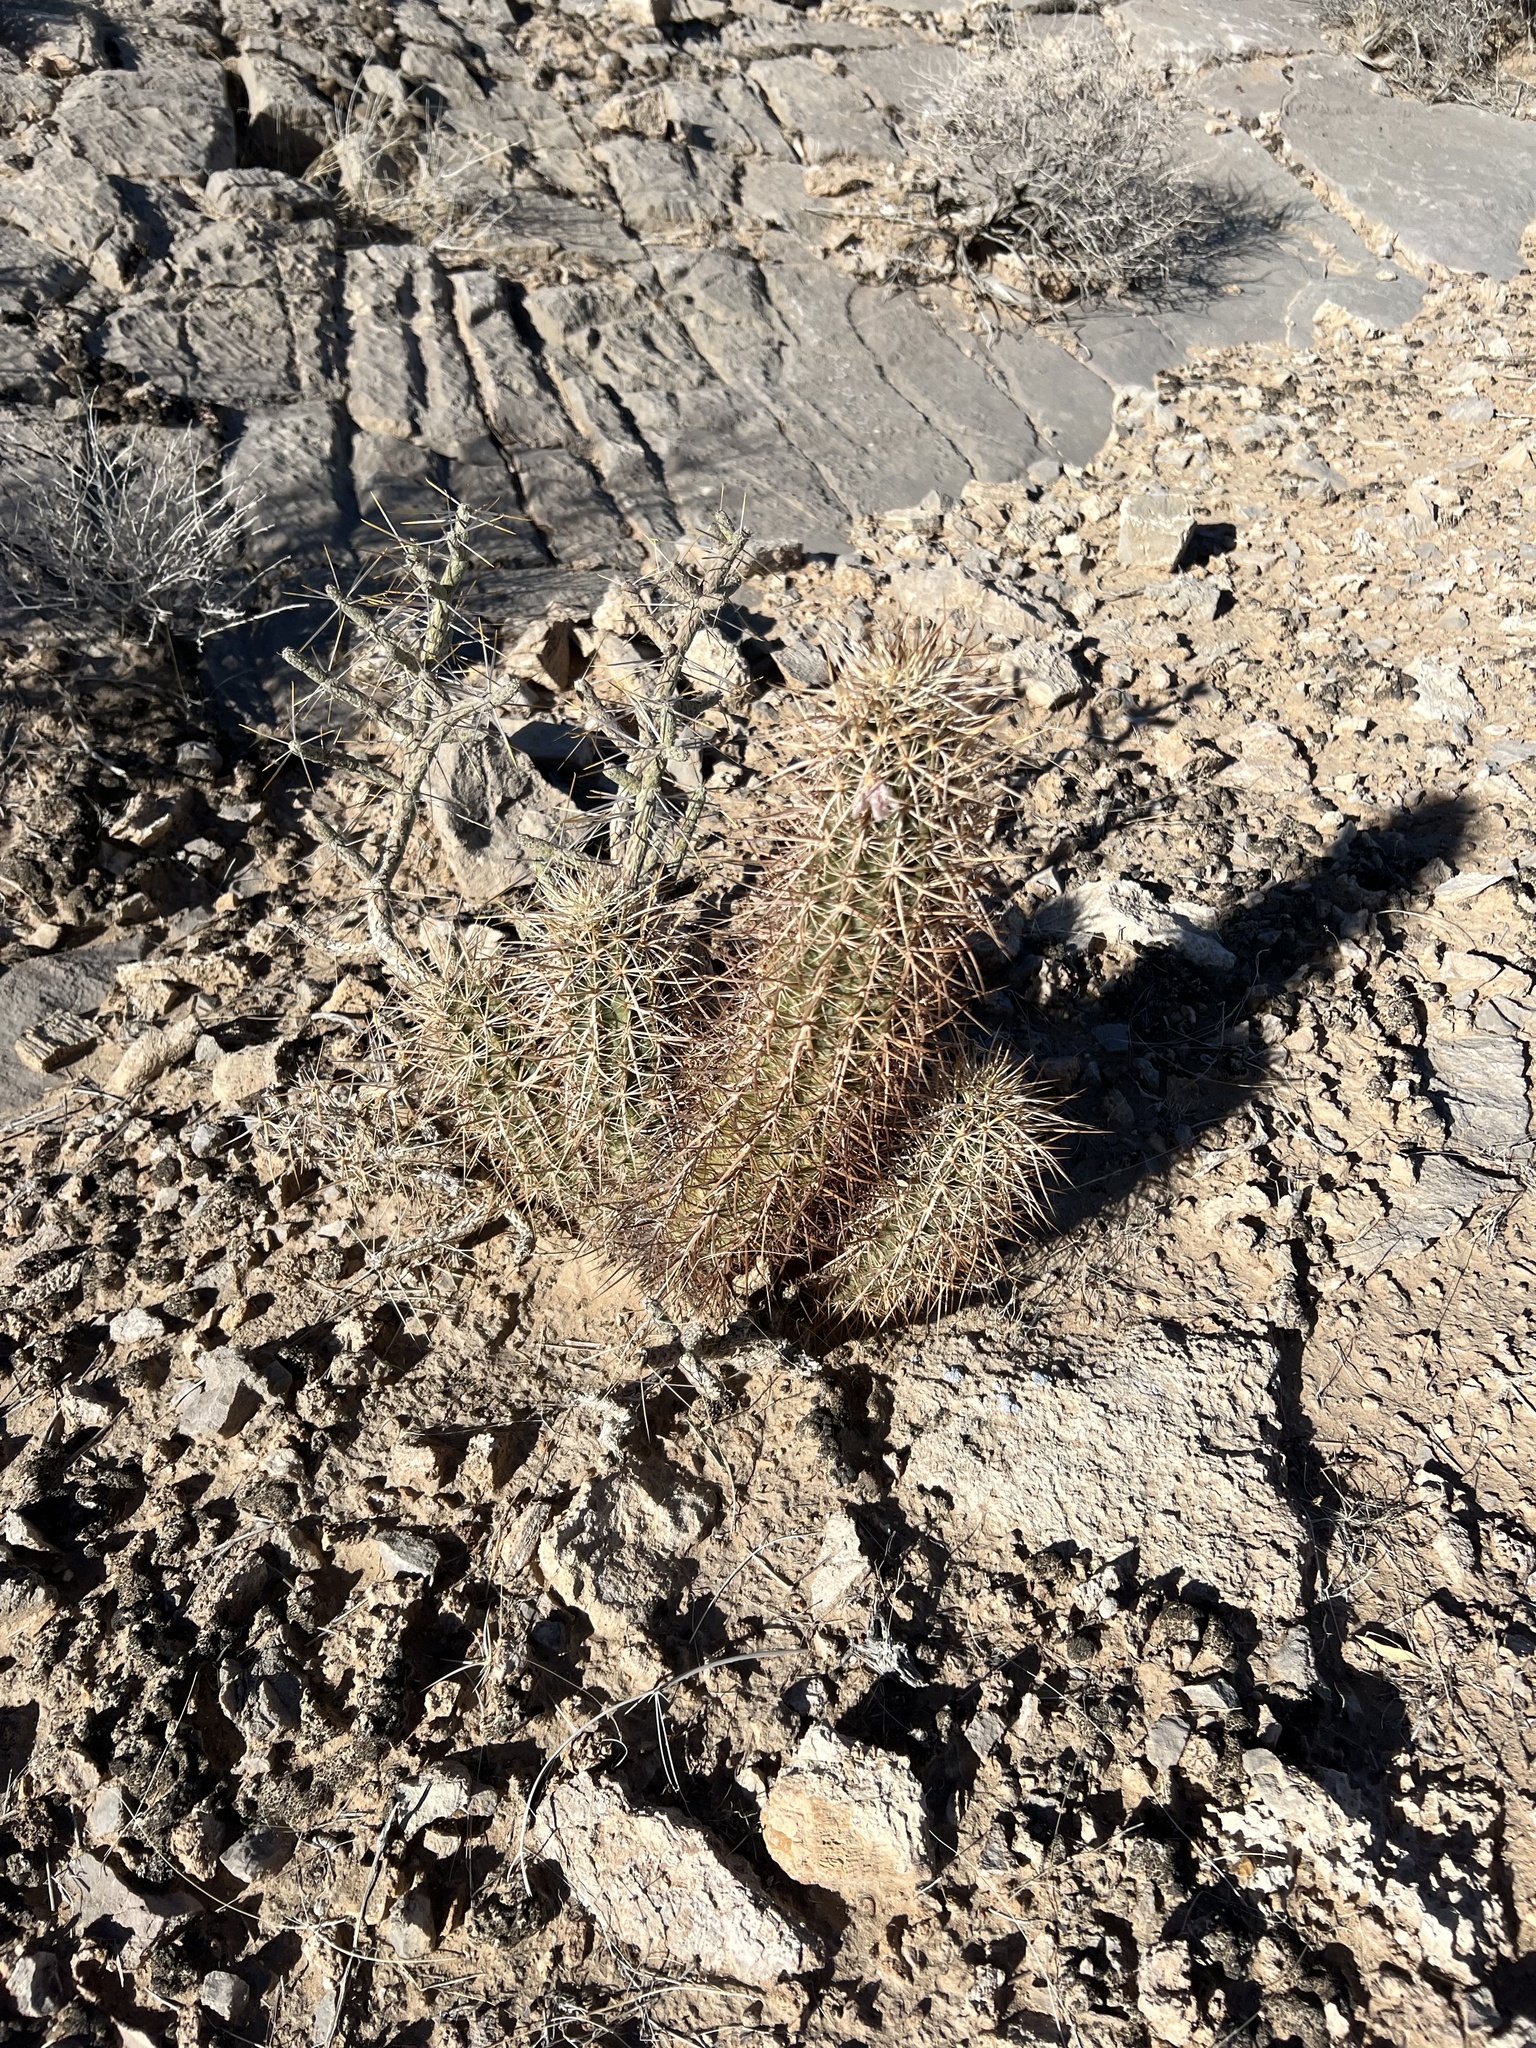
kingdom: Plantae
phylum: Tracheophyta
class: Magnoliopsida
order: Caryophyllales
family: Cactaceae
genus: Echinocereus
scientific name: Echinocereus engelmannii
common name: Engelmann's hedgehog cactus
